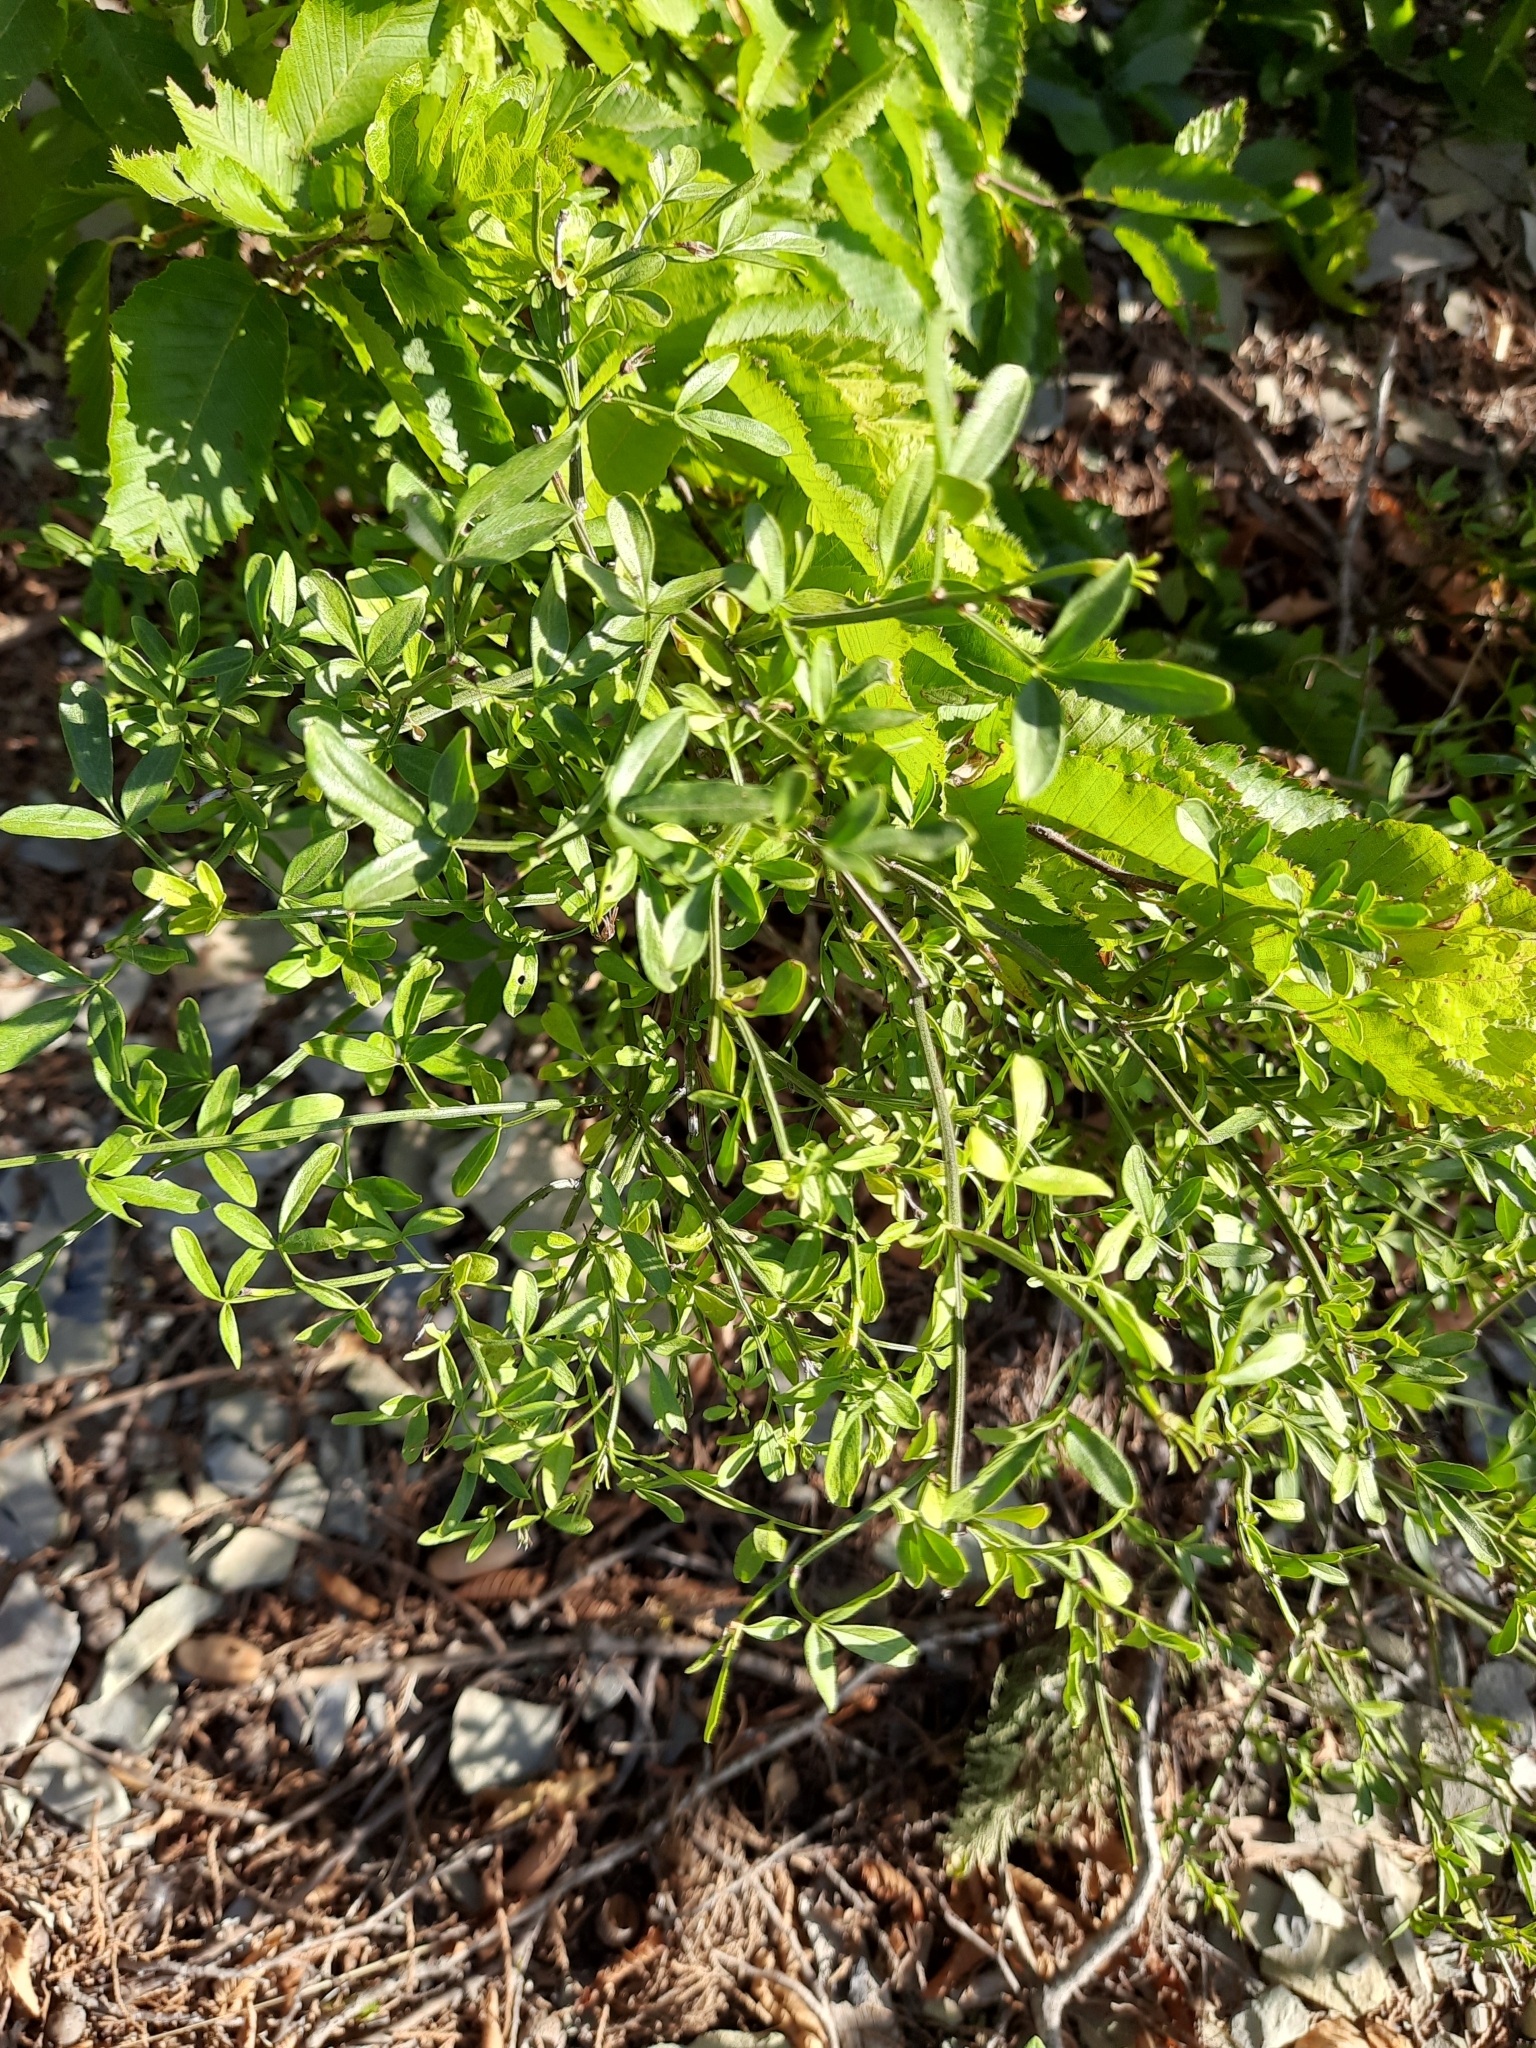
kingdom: Plantae
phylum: Tracheophyta
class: Magnoliopsida
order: Lamiales
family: Oleaceae
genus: Chrysojasminum
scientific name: Chrysojasminum fruticans
